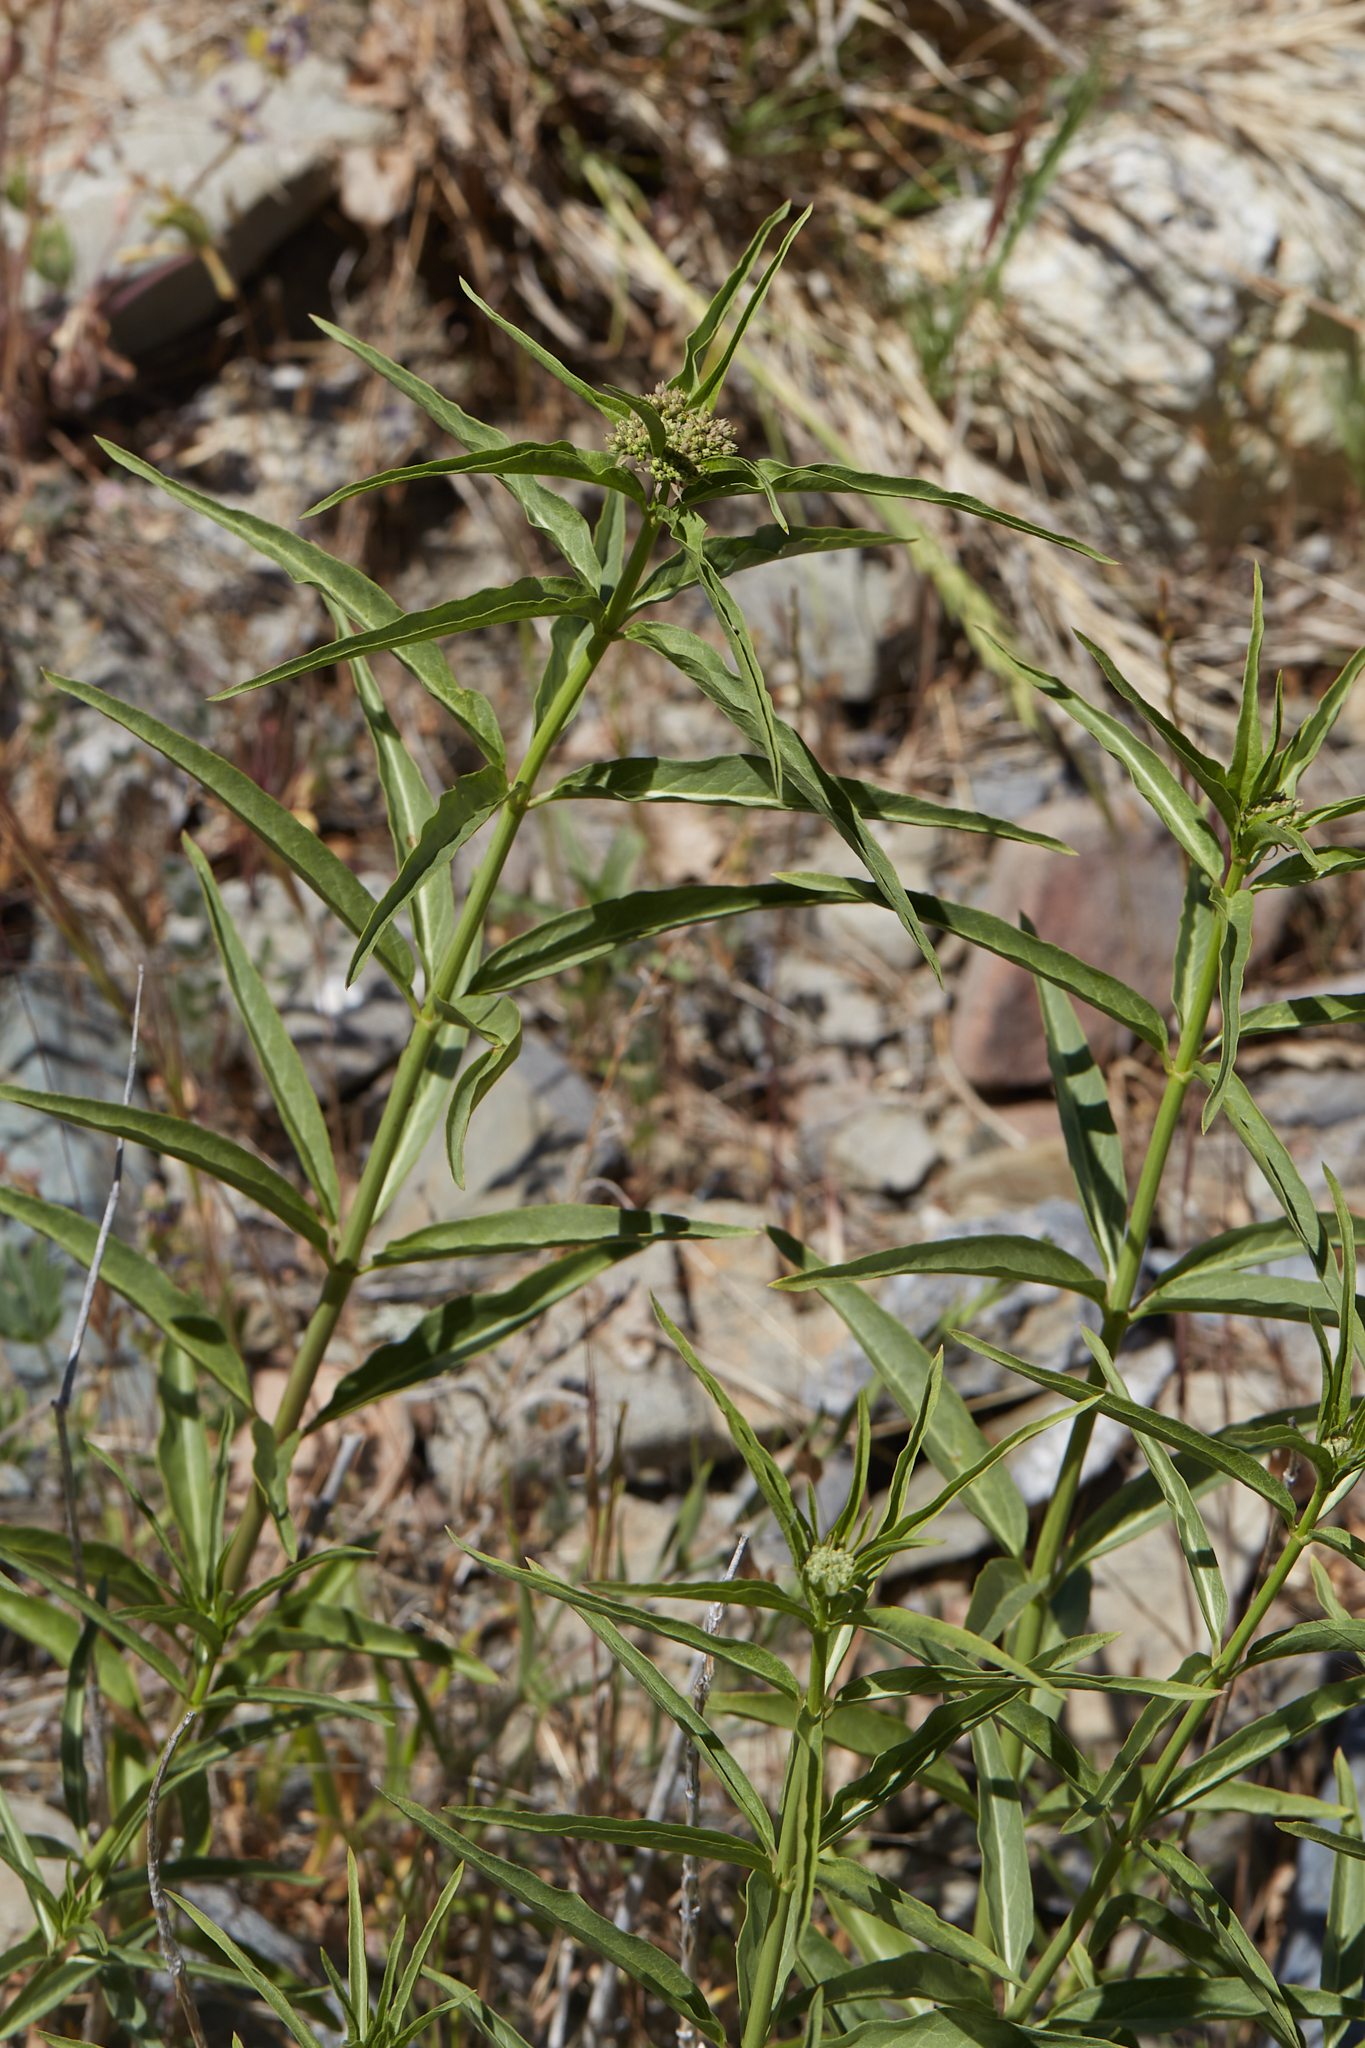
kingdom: Plantae
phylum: Tracheophyta
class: Magnoliopsida
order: Gentianales
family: Apocynaceae
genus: Asclepias
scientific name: Asclepias fascicularis
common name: Mexican milkweed
